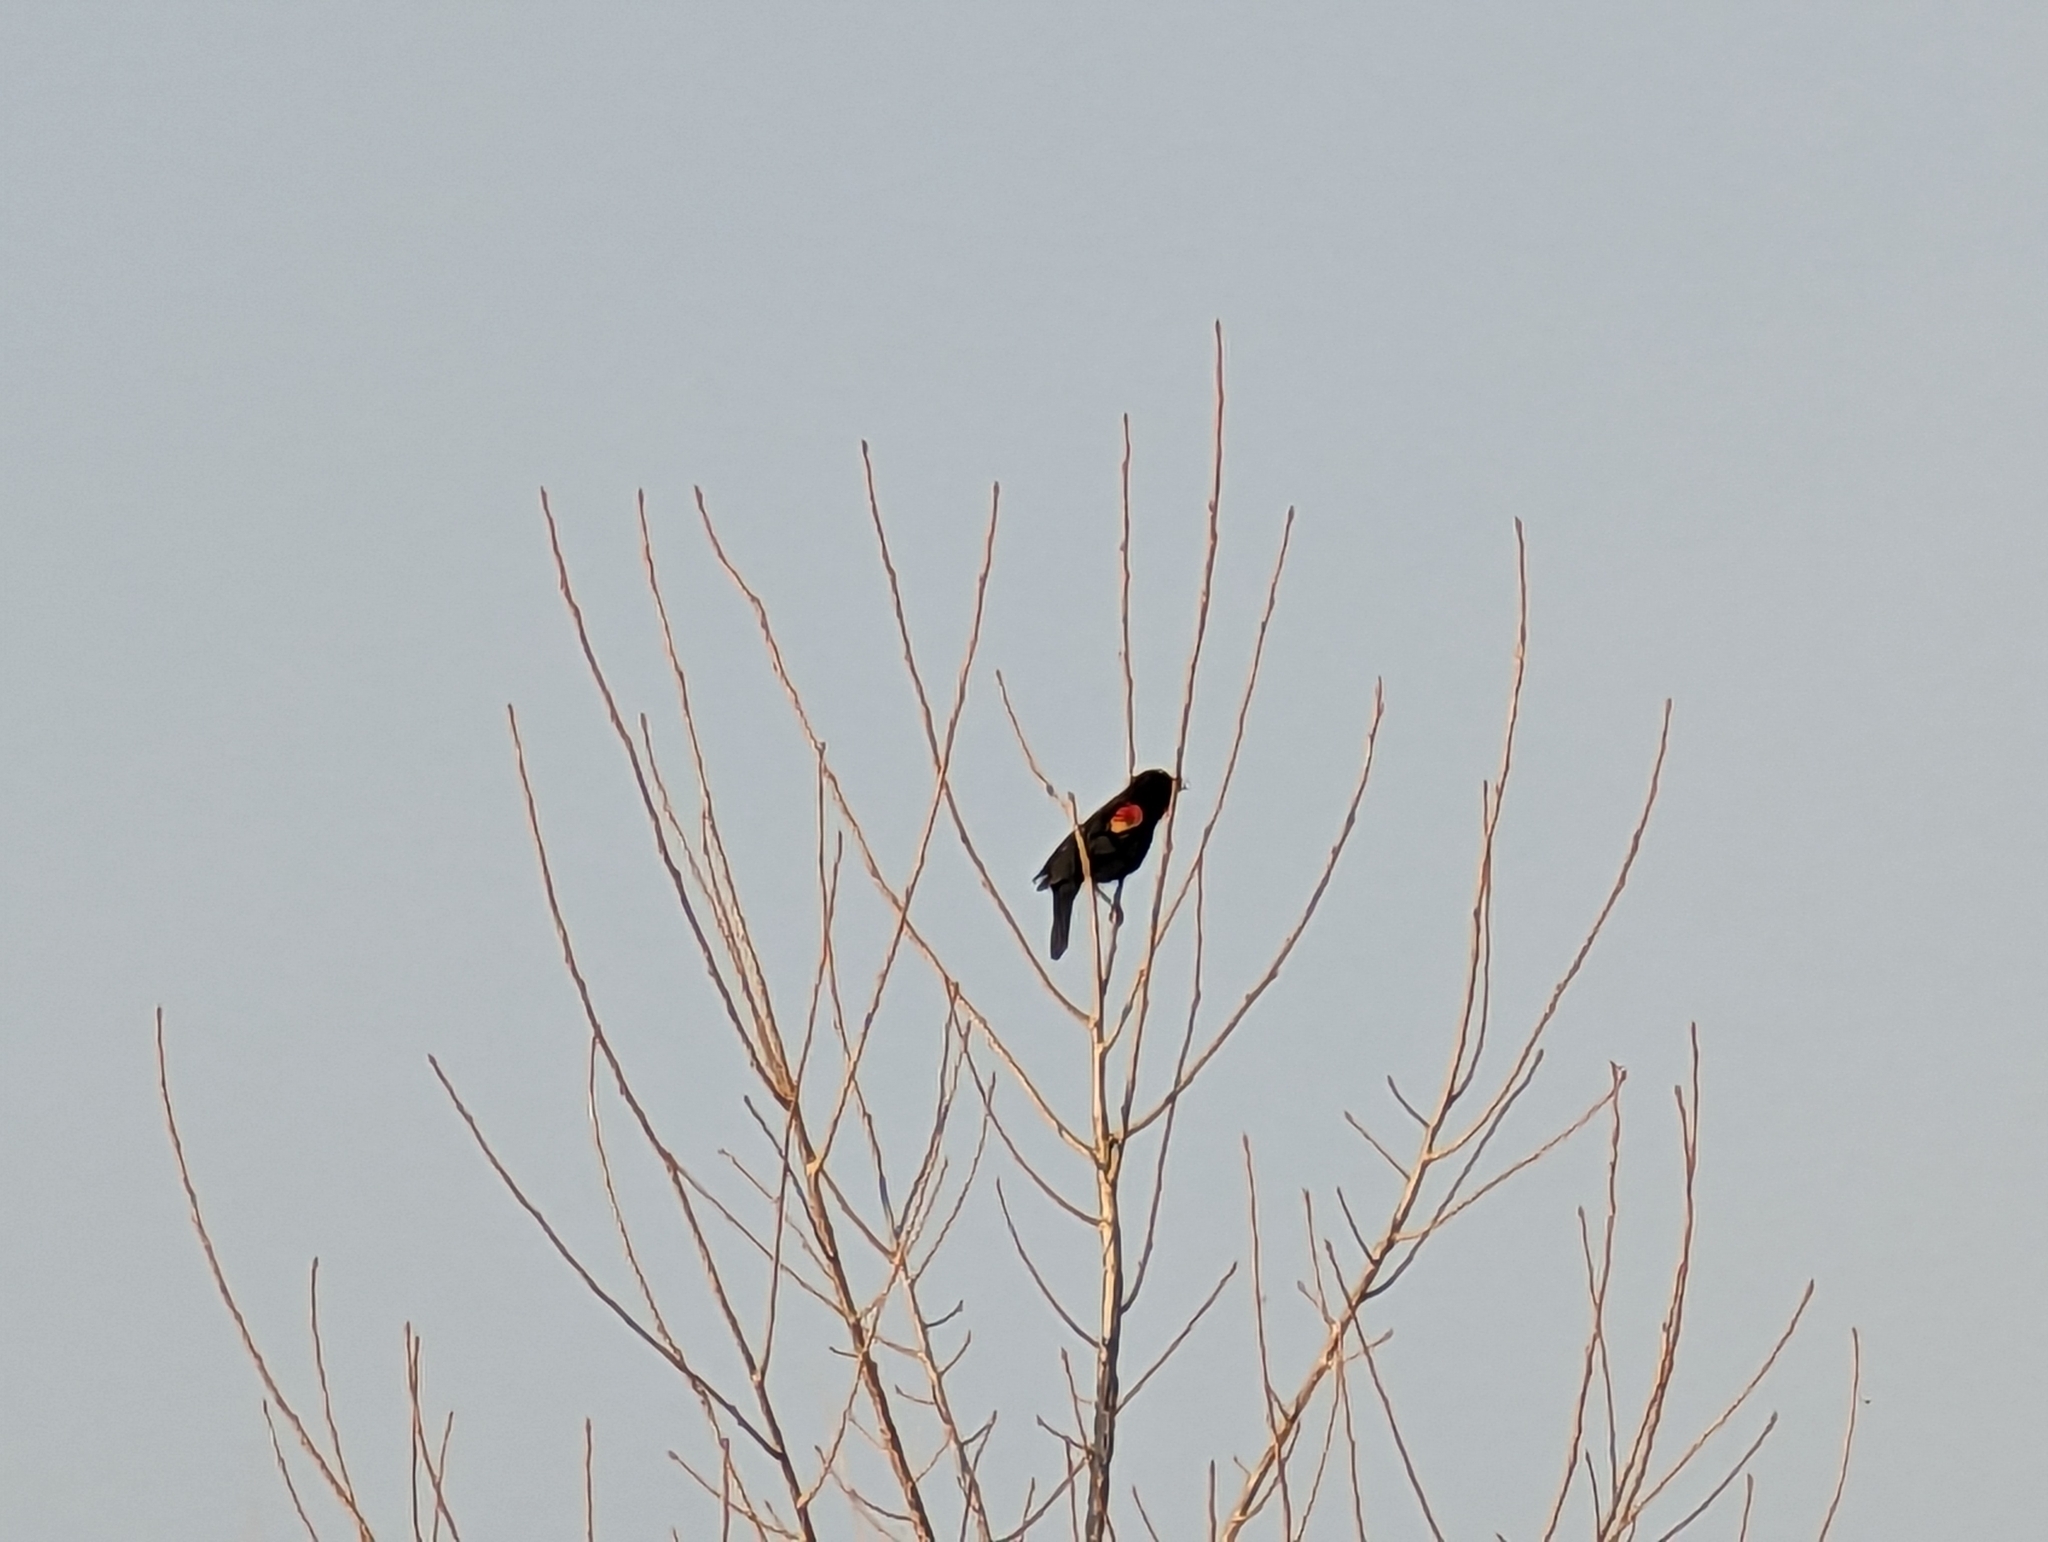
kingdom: Animalia
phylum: Chordata
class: Aves
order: Passeriformes
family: Icteridae
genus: Agelaius
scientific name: Agelaius phoeniceus
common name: Red-winged blackbird
